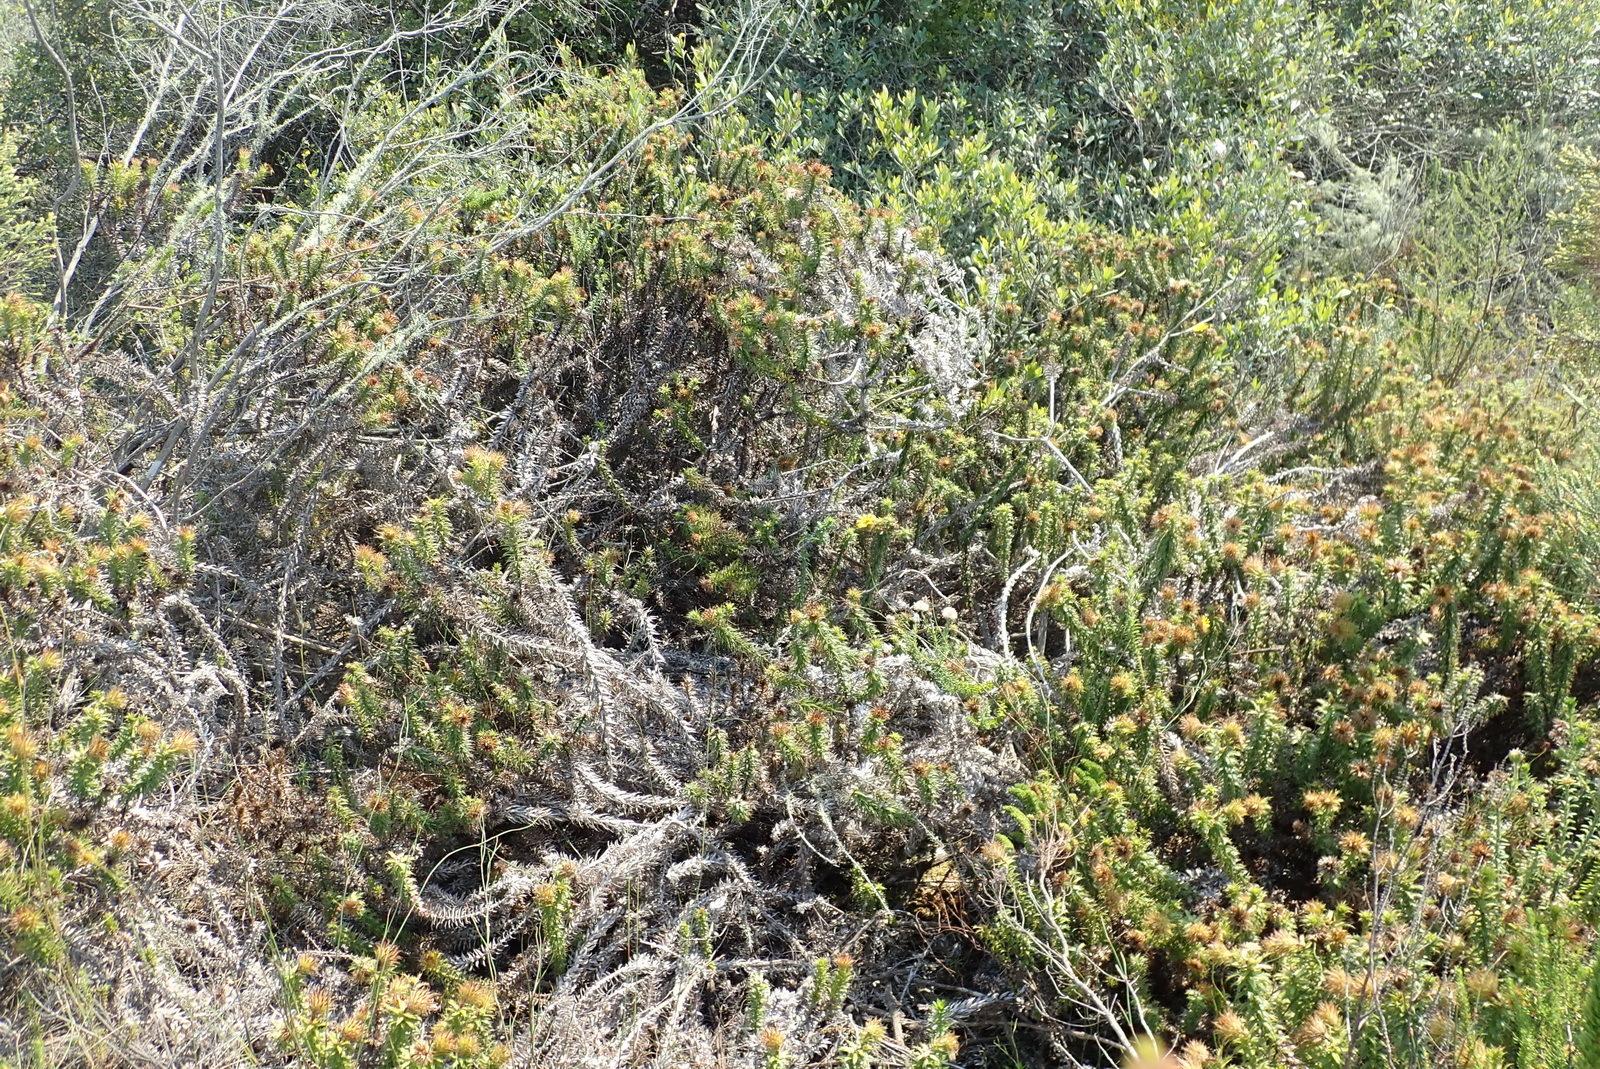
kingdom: Plantae
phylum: Tracheophyta
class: Magnoliopsida
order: Asterales
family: Asteraceae
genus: Cullumia
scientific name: Cullumia carlinoides
